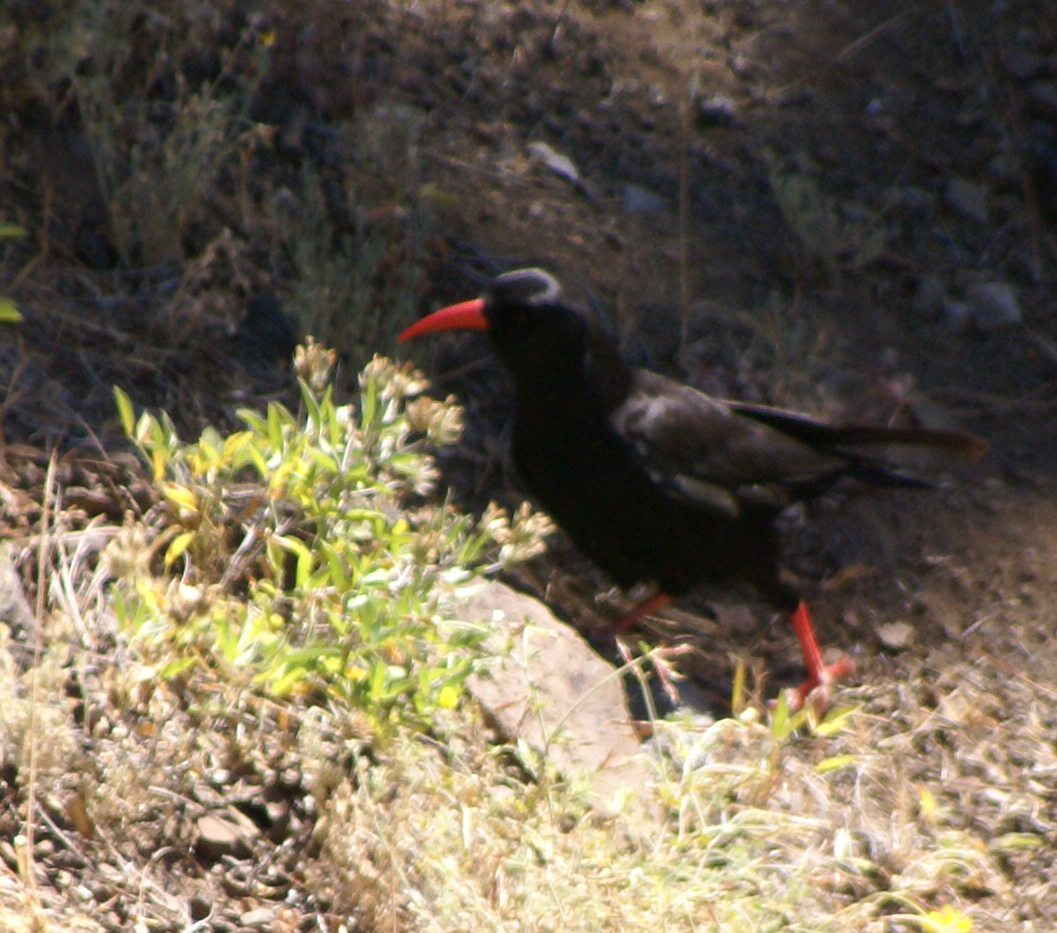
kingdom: Animalia
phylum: Chordata
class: Aves
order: Passeriformes
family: Corvidae
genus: Pyrrhocorax
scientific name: Pyrrhocorax pyrrhocorax
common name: Red-billed chough
